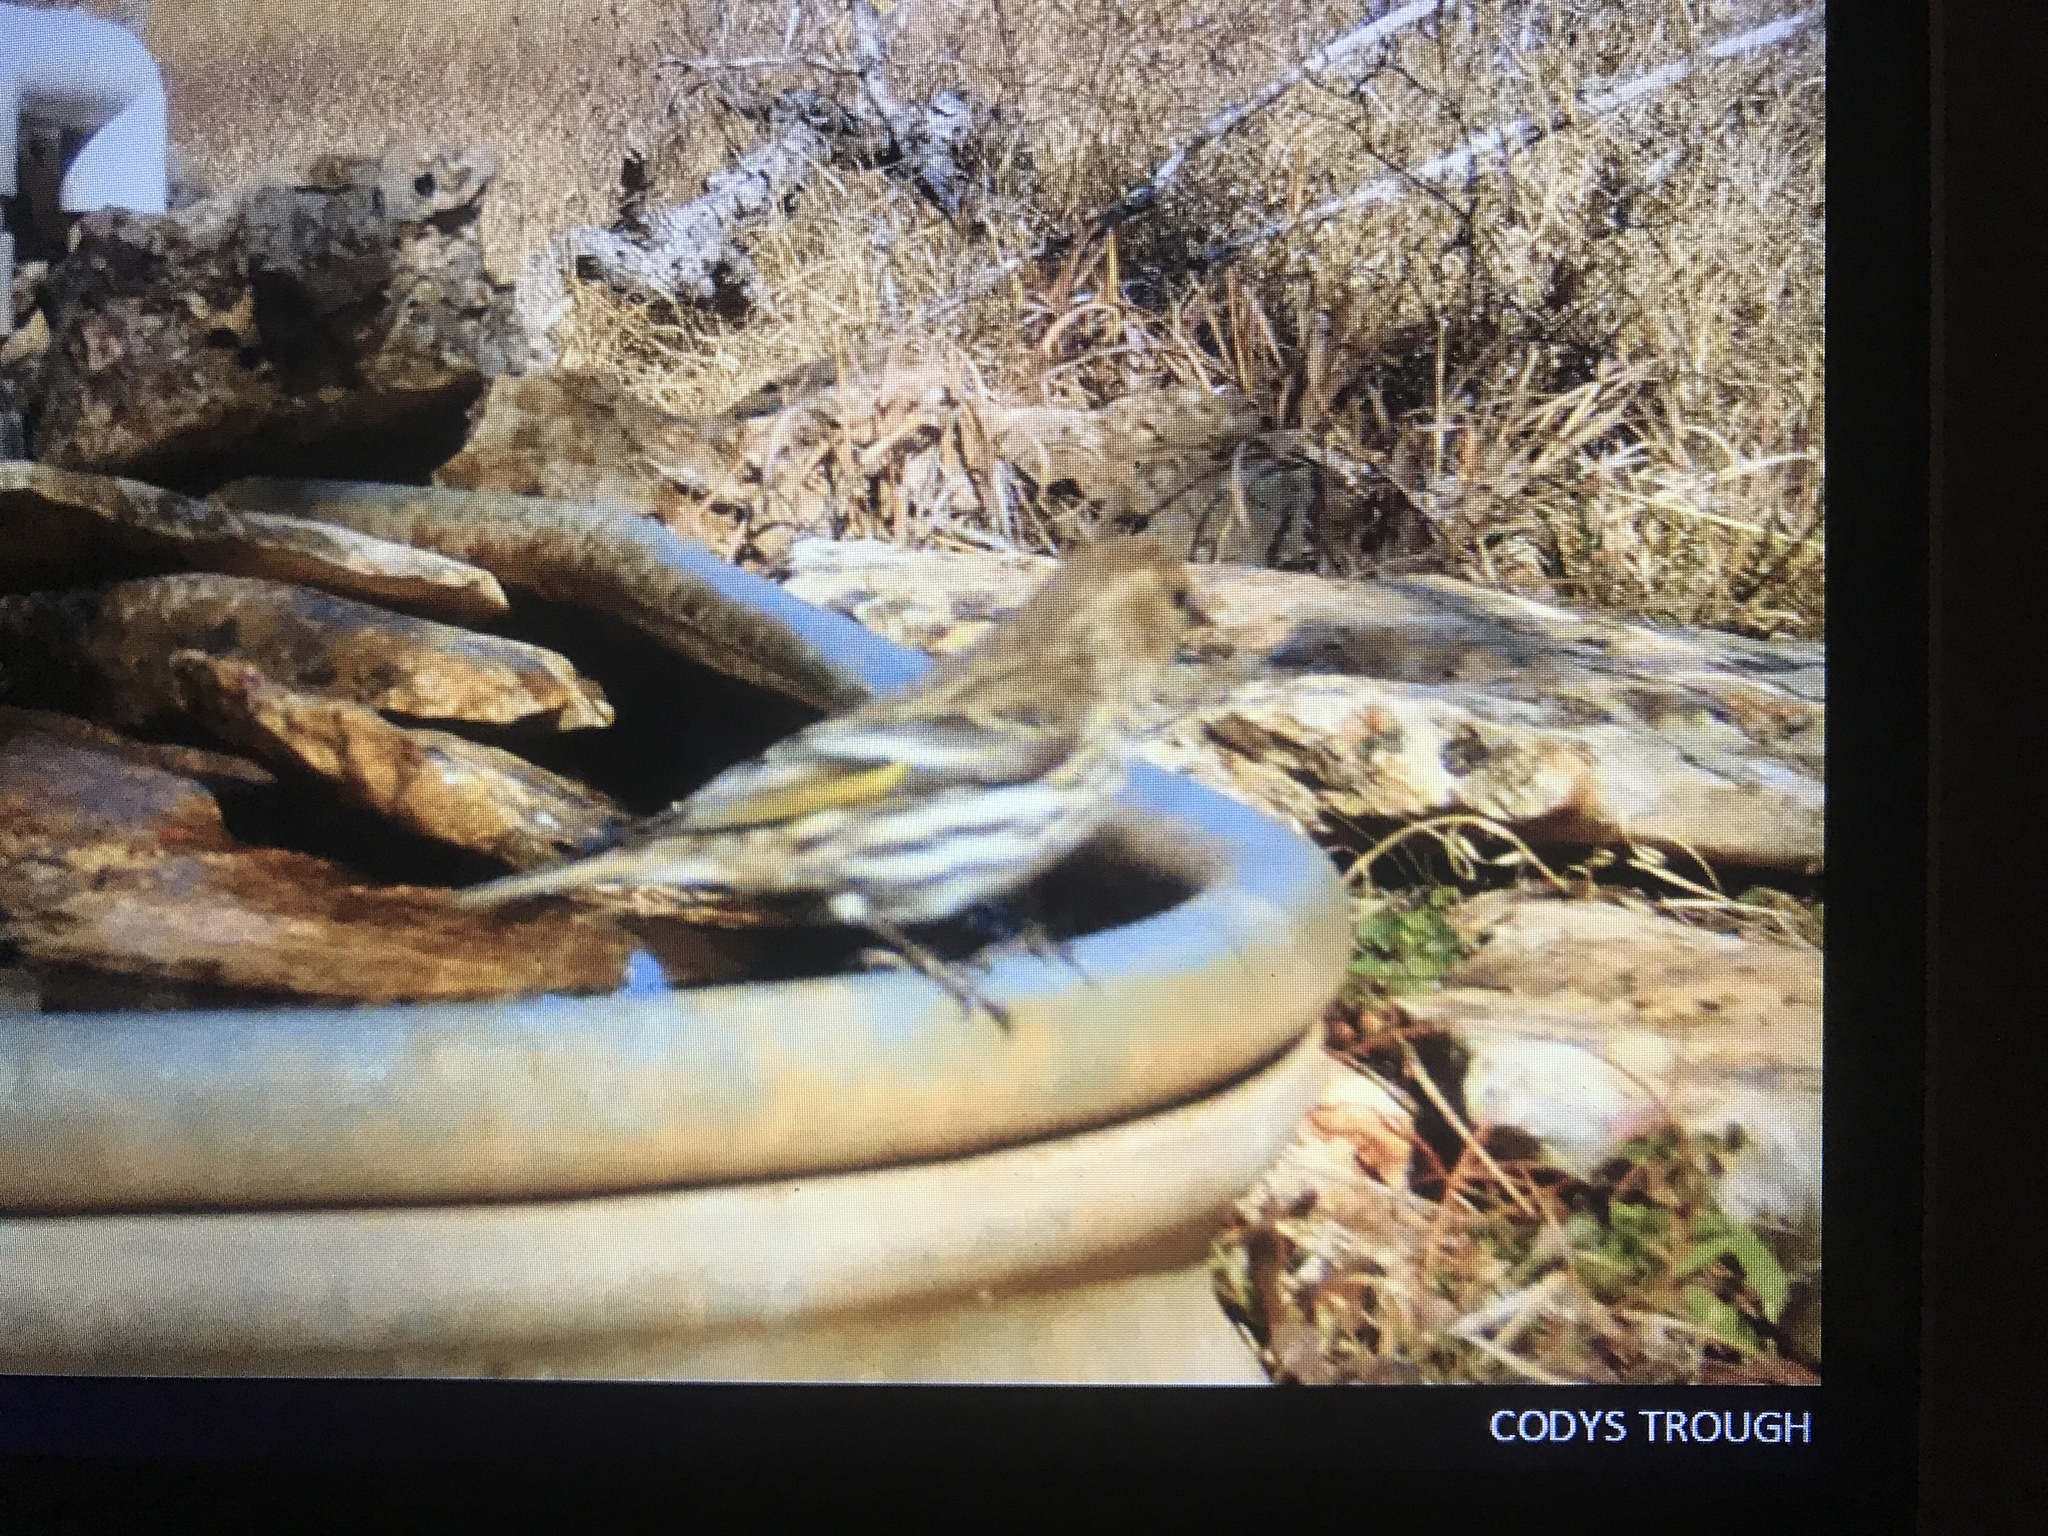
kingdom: Animalia
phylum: Chordata
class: Aves
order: Passeriformes
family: Fringillidae
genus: Spinus
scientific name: Spinus pinus
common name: Pine siskin
